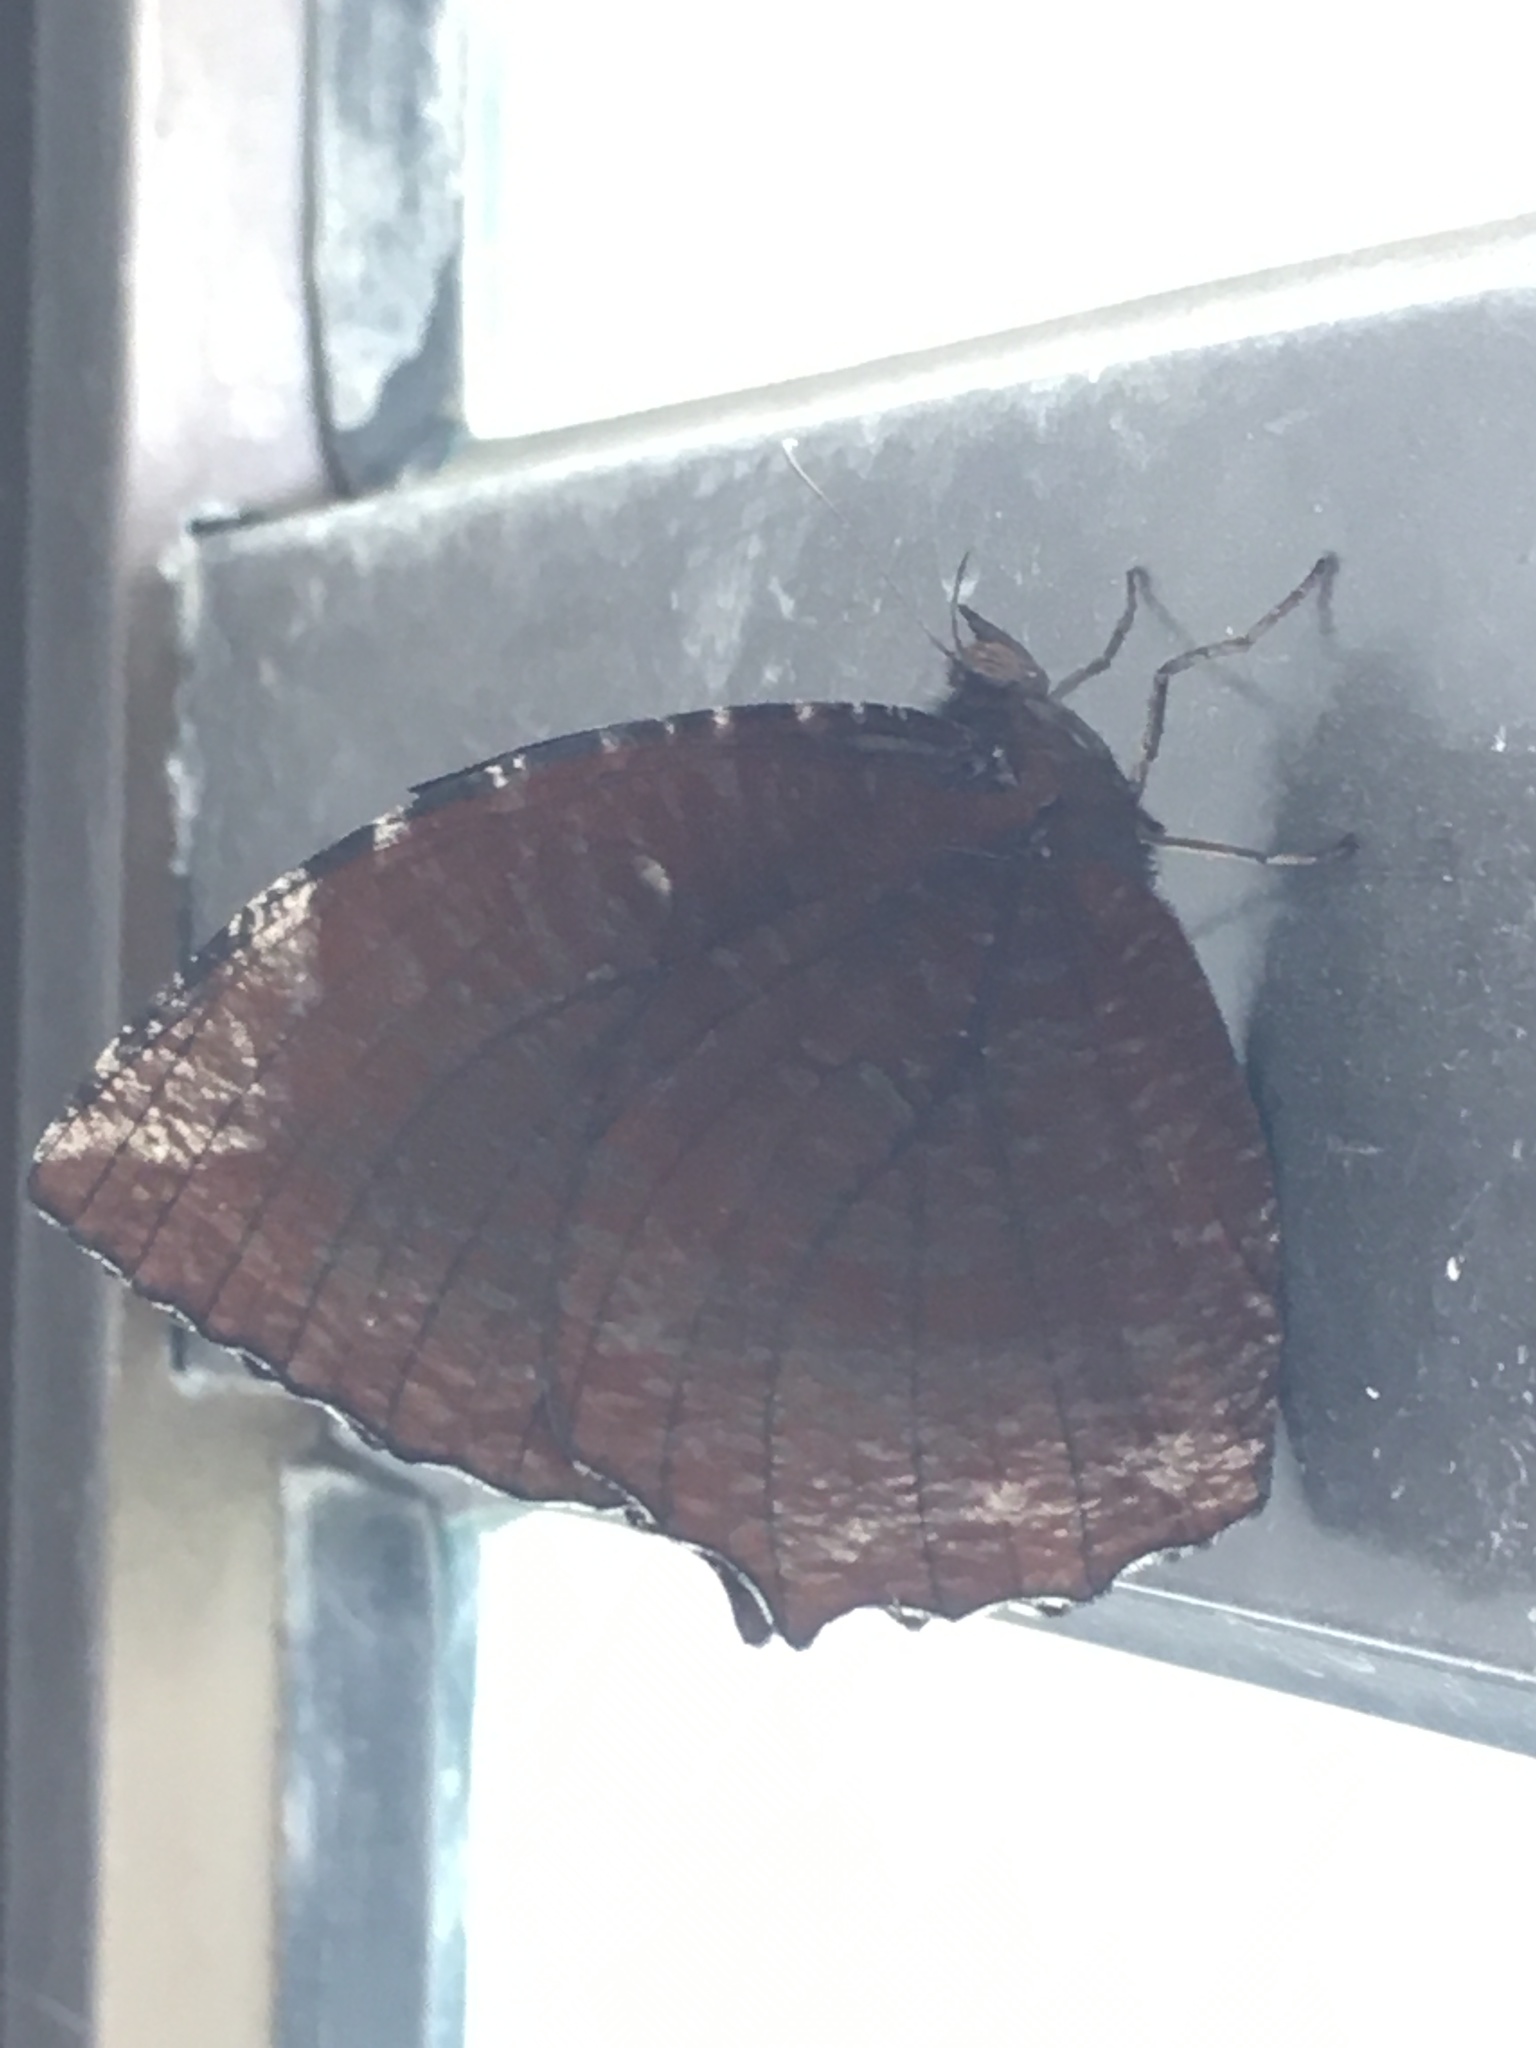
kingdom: Animalia
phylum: Arthropoda
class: Insecta
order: Lepidoptera
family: Nymphalidae
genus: Elymnias
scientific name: Elymnias hypermnestra
